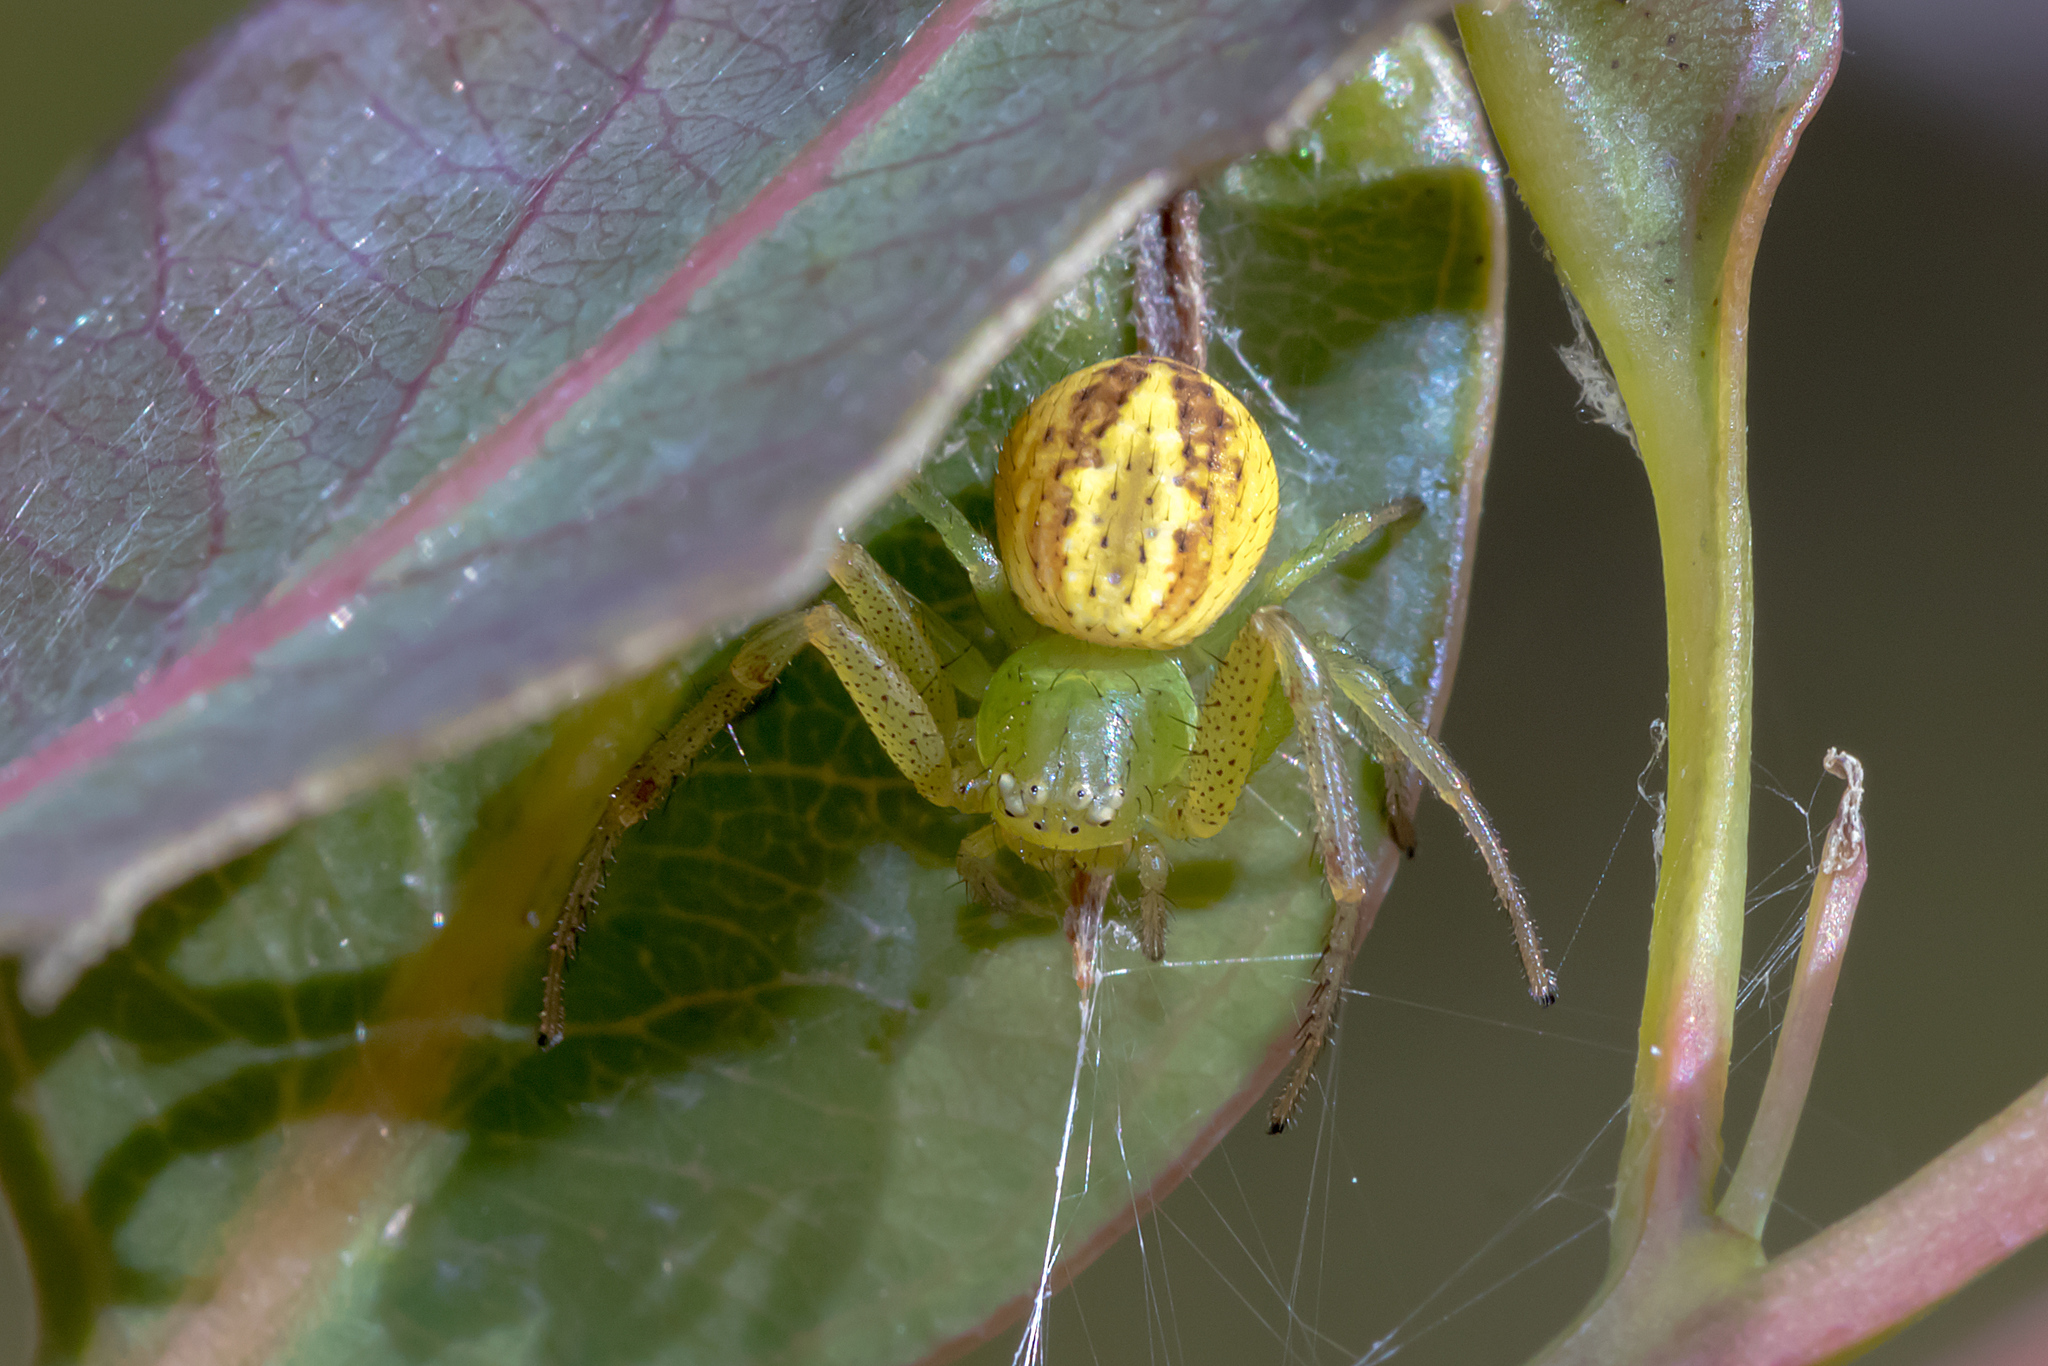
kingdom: Animalia
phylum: Arthropoda
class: Arachnida
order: Araneae
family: Thomisidae
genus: Australomisidia
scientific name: Australomisidia rosea
